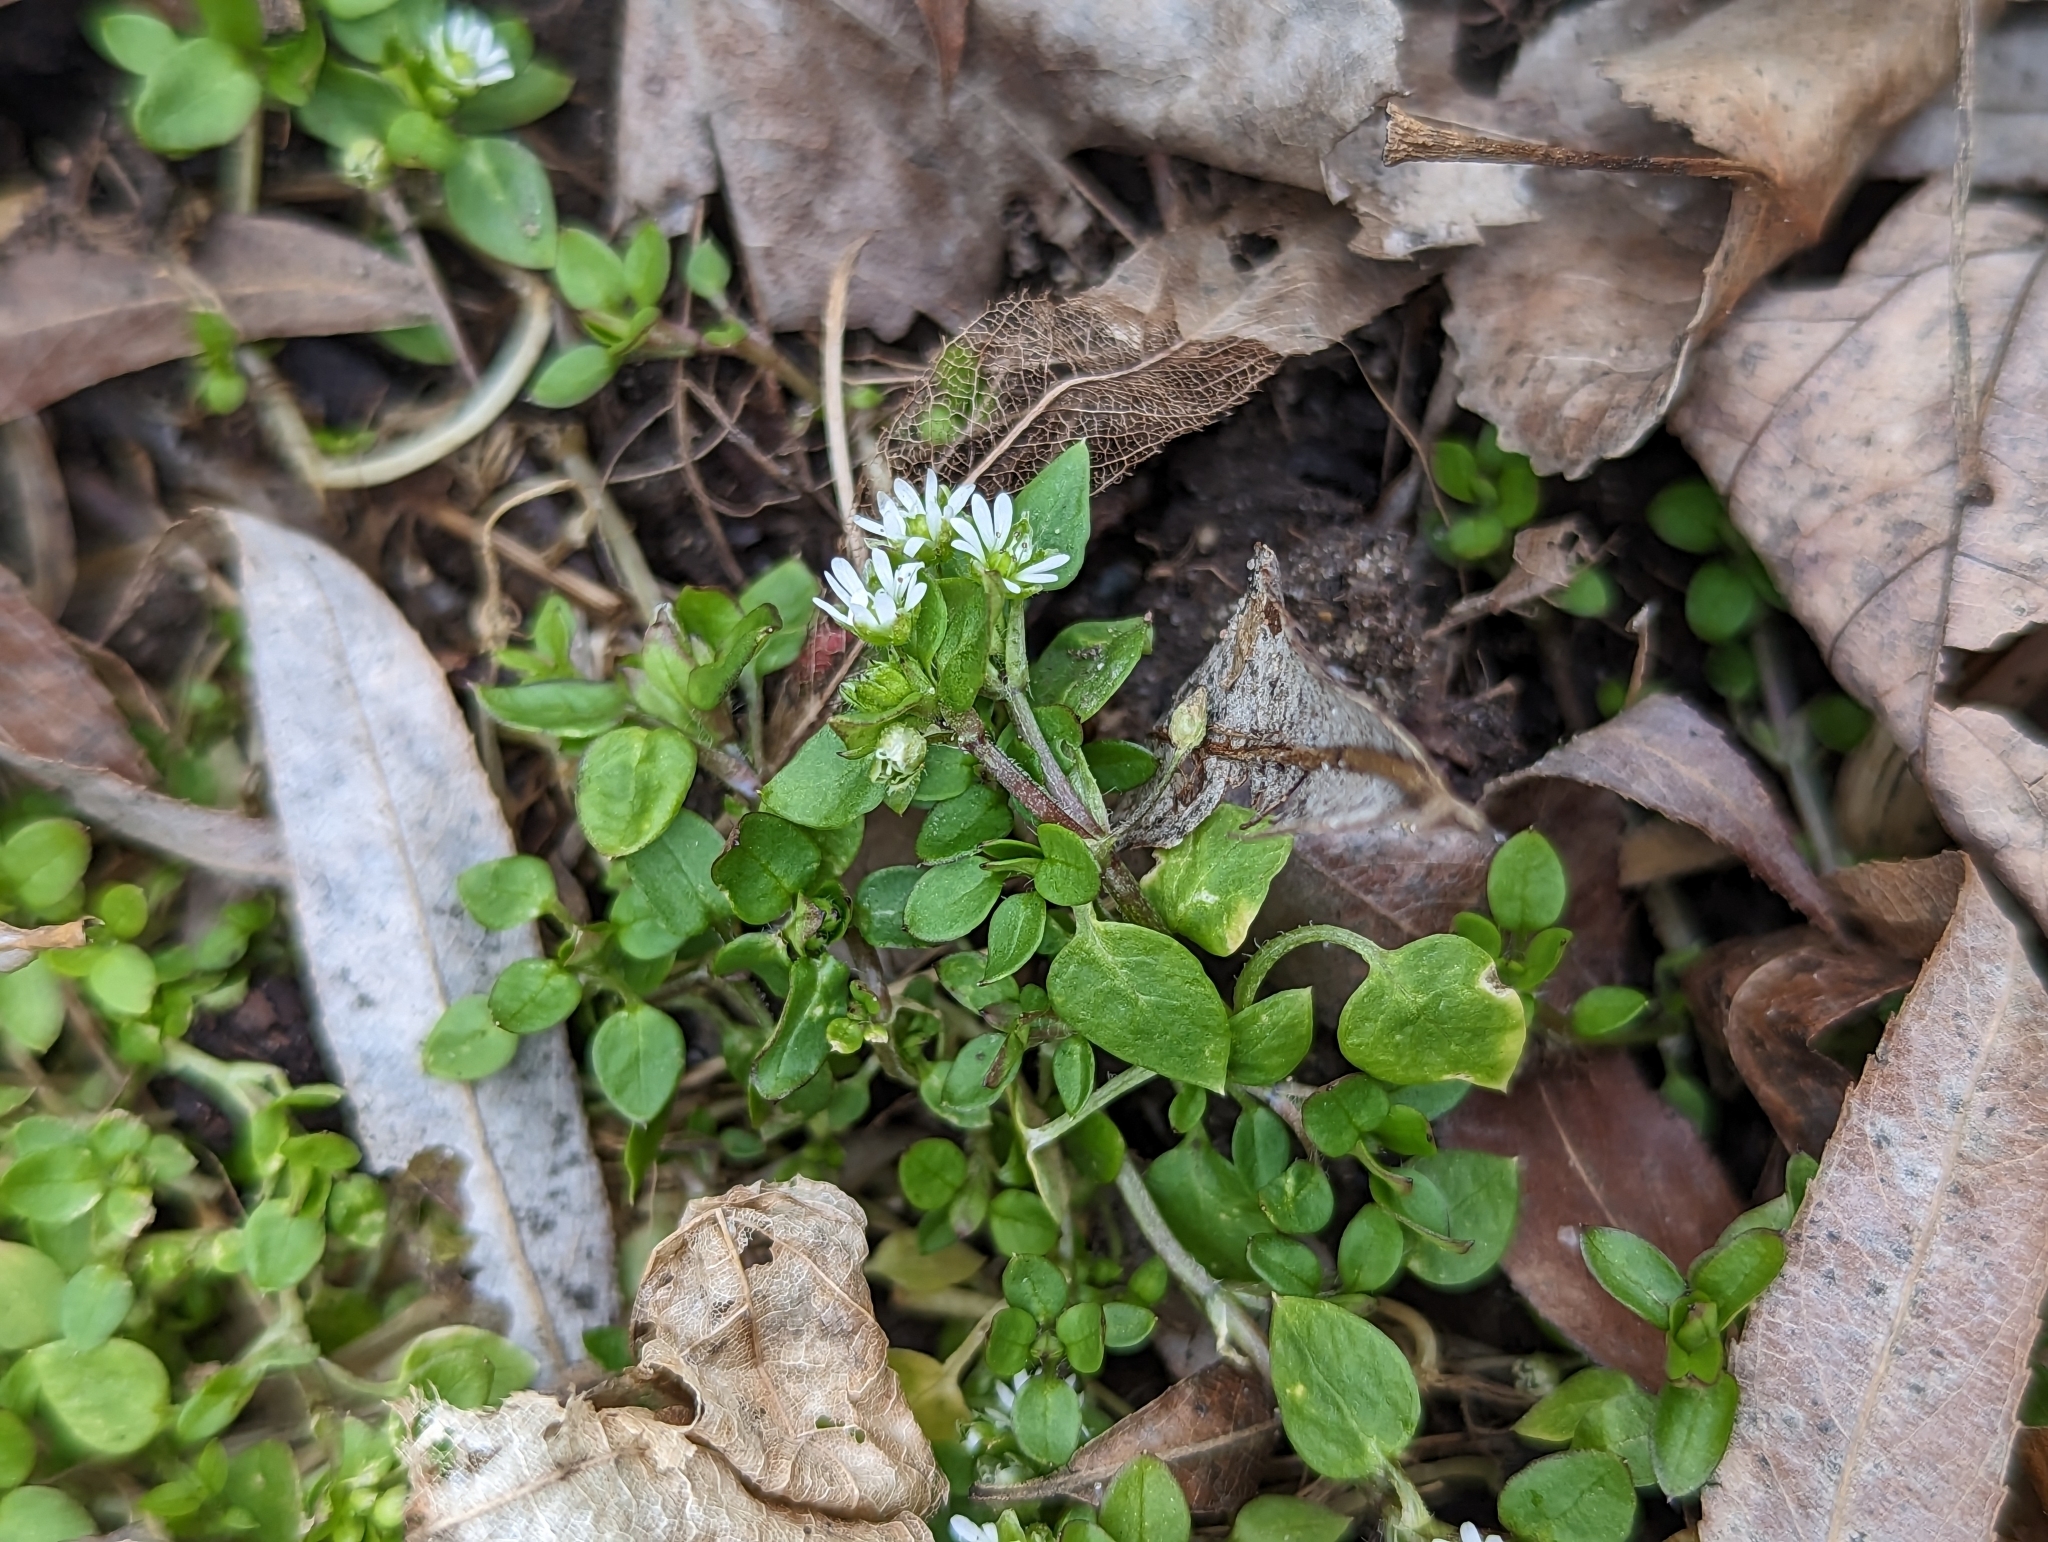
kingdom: Plantae
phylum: Tracheophyta
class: Magnoliopsida
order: Caryophyllales
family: Caryophyllaceae
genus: Stellaria
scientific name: Stellaria media
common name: Common chickweed
